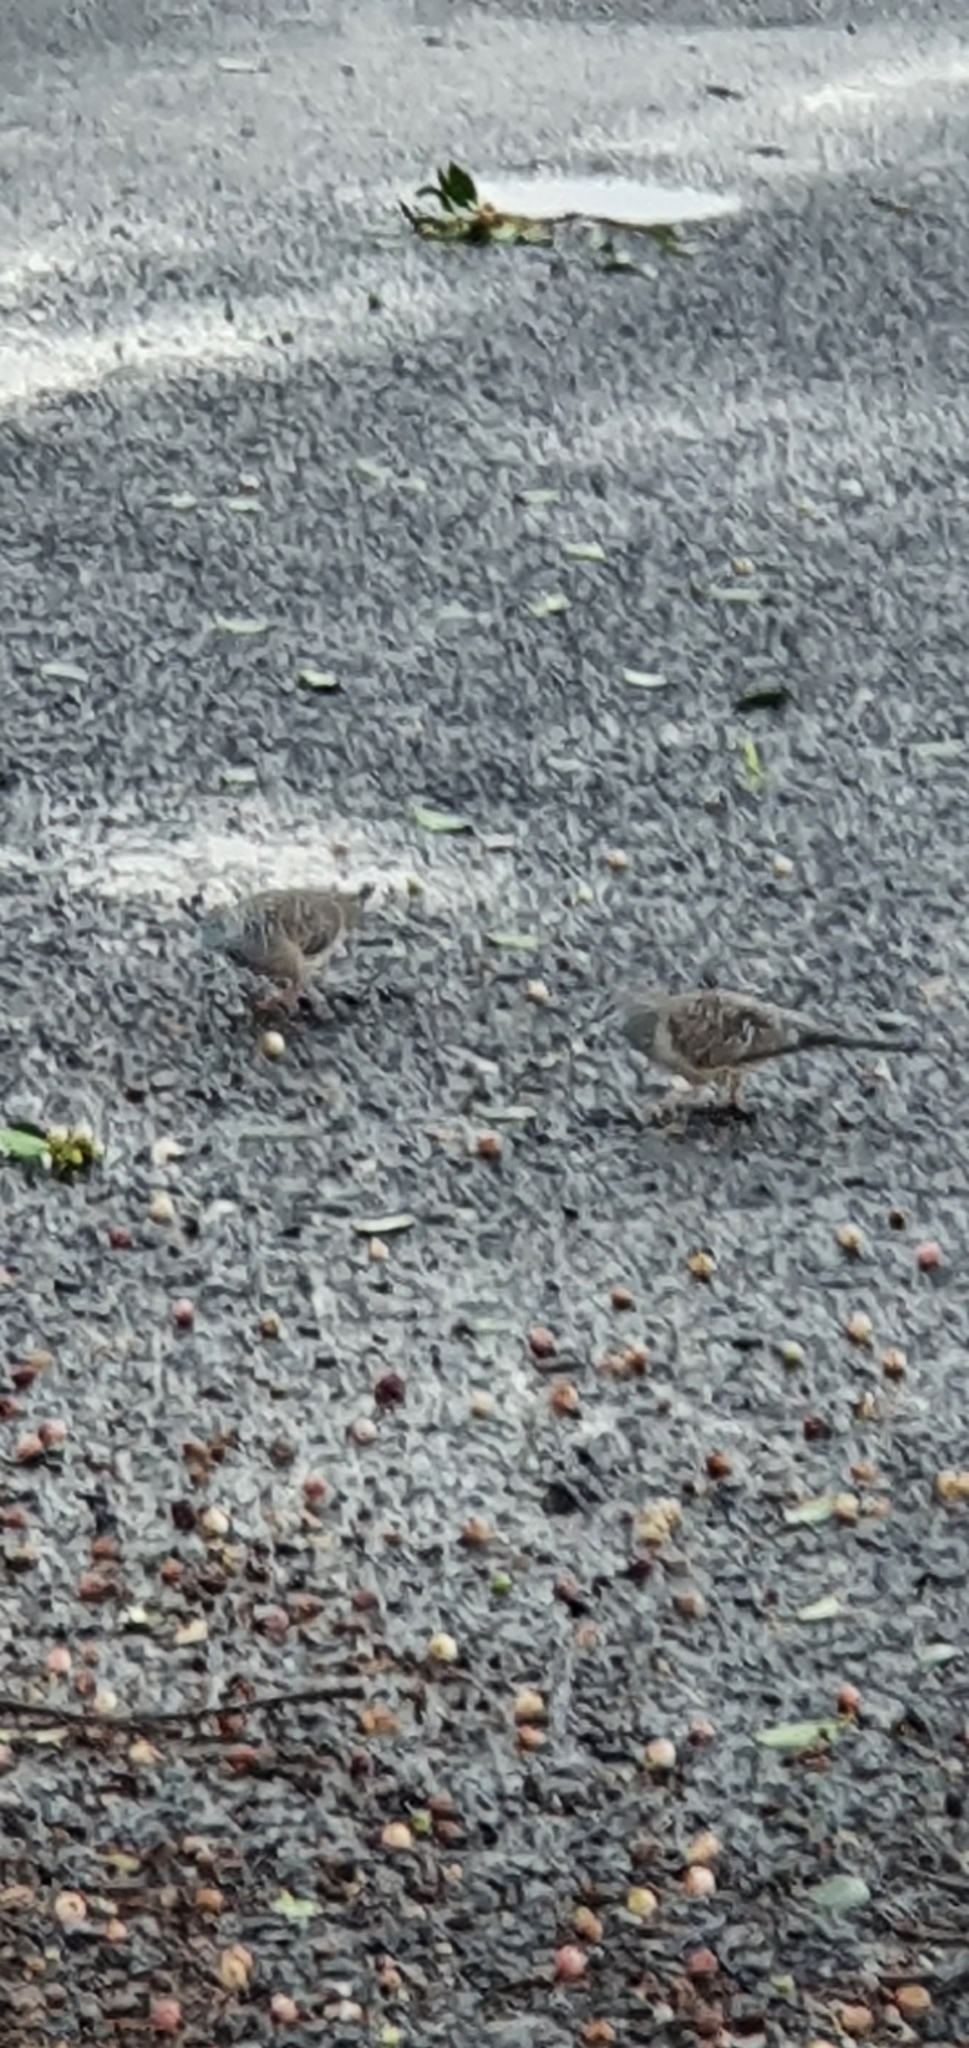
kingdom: Animalia
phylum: Chordata
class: Aves
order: Columbiformes
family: Columbidae
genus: Geopelia
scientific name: Geopelia placida
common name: Peaceful dove
